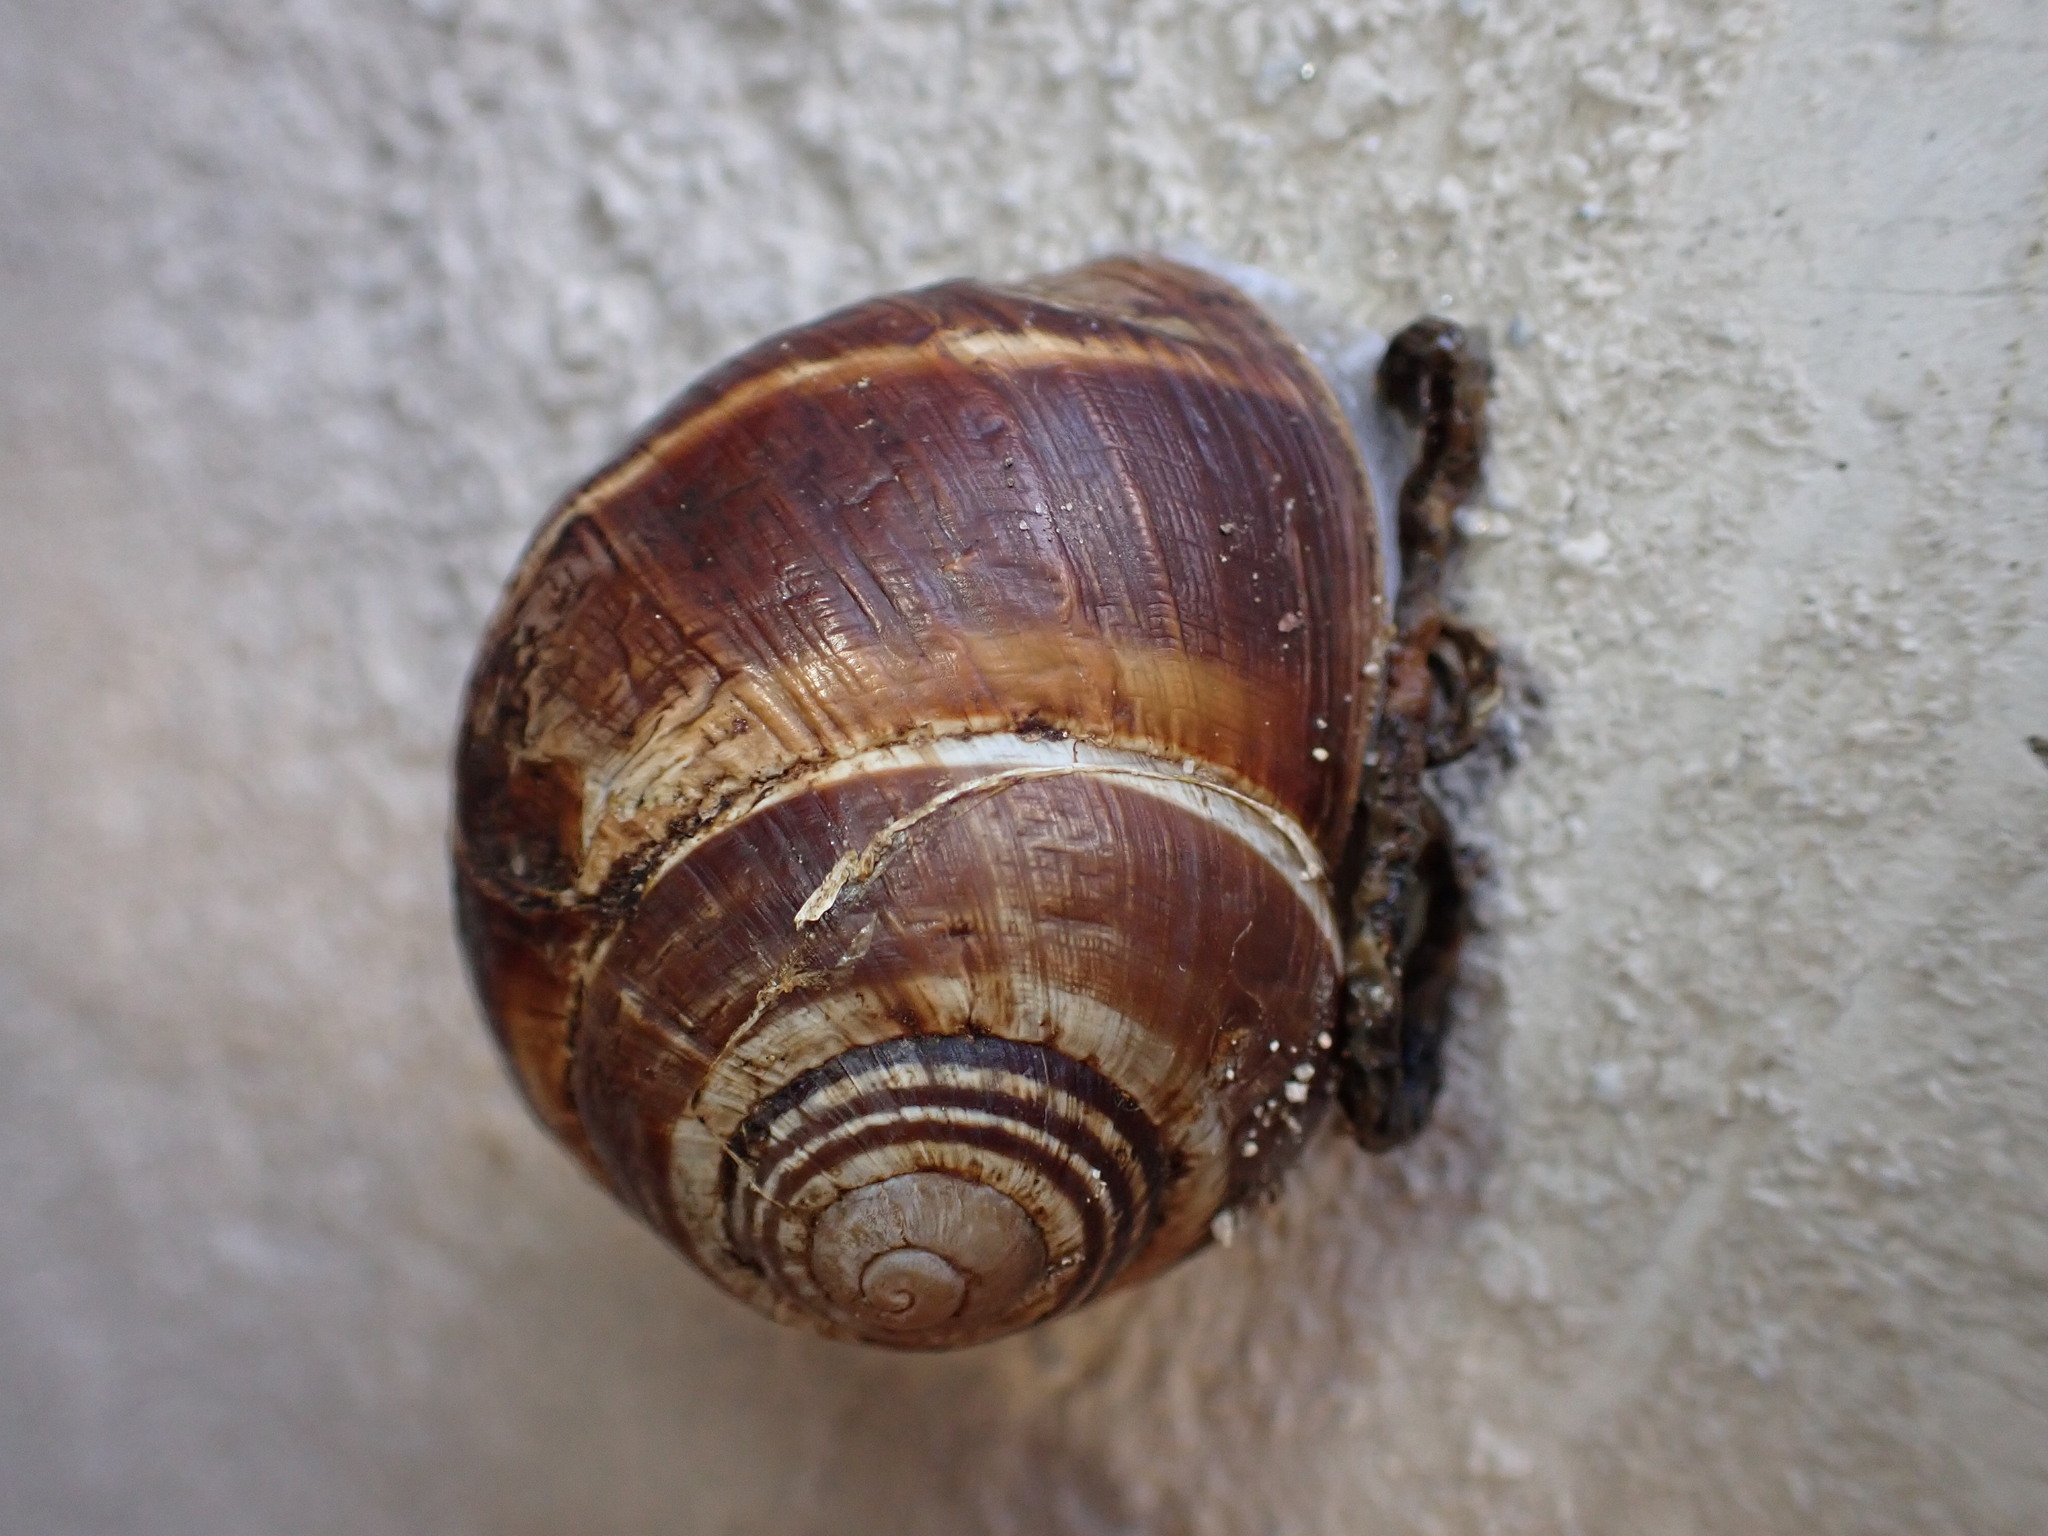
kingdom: Animalia
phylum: Mollusca
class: Gastropoda
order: Stylommatophora
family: Helicidae
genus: Helix
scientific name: Helix lucorum
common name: Turkish snail
